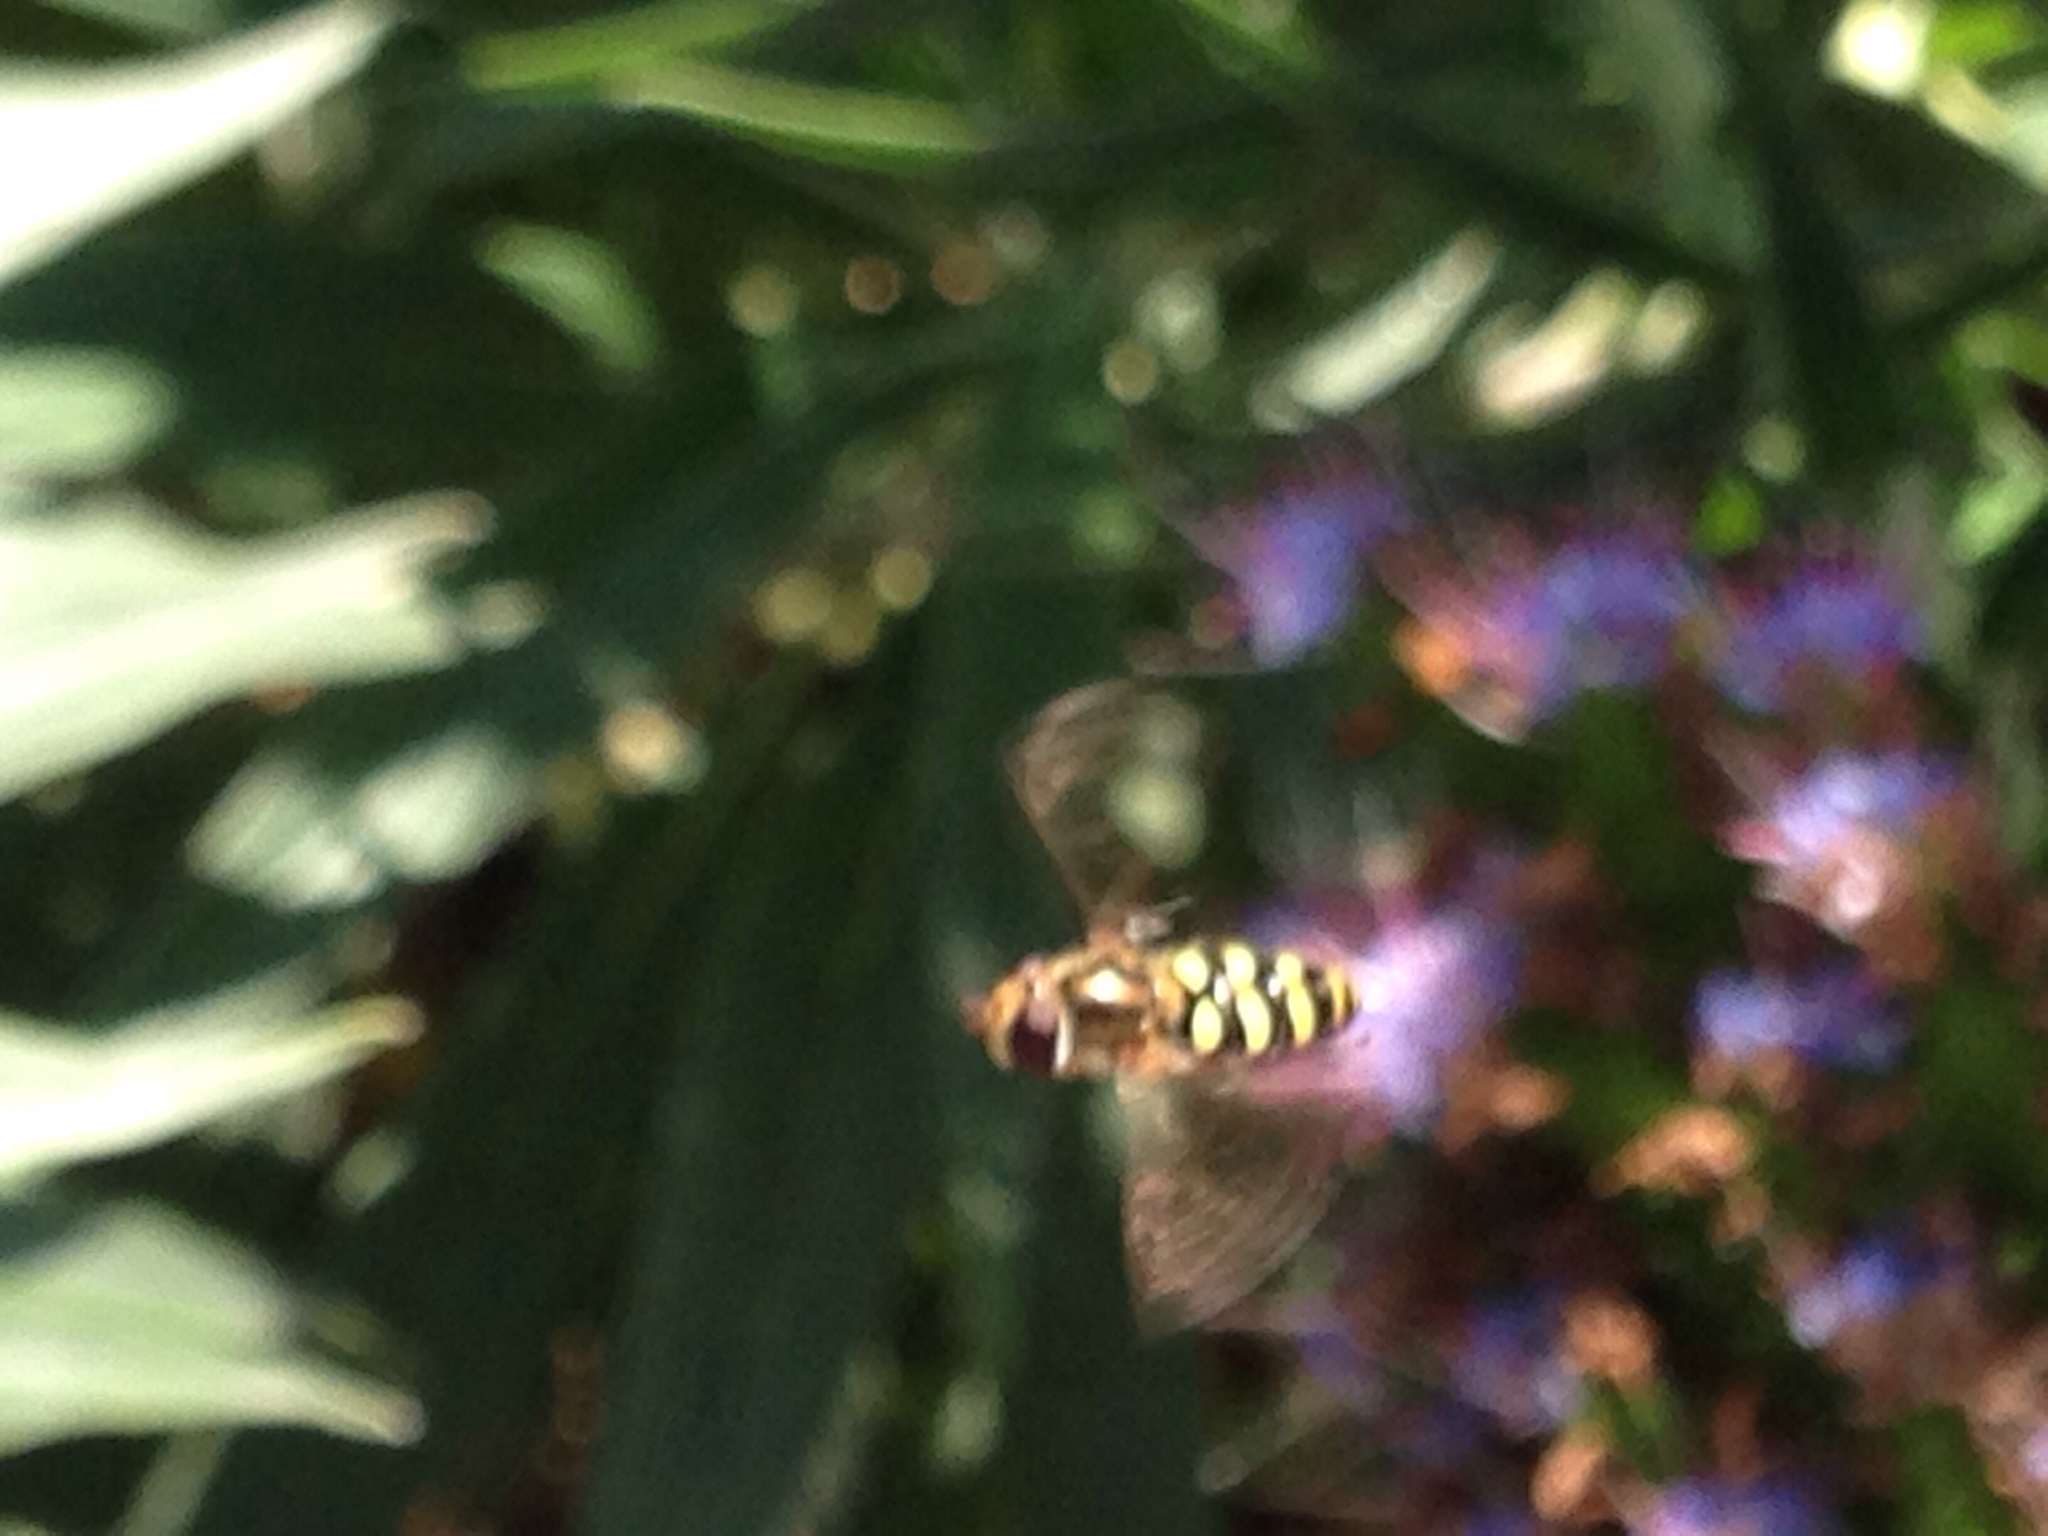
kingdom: Animalia
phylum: Arthropoda
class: Insecta
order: Diptera
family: Syrphidae
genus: Eupeodes
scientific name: Eupeodes fumipennis
